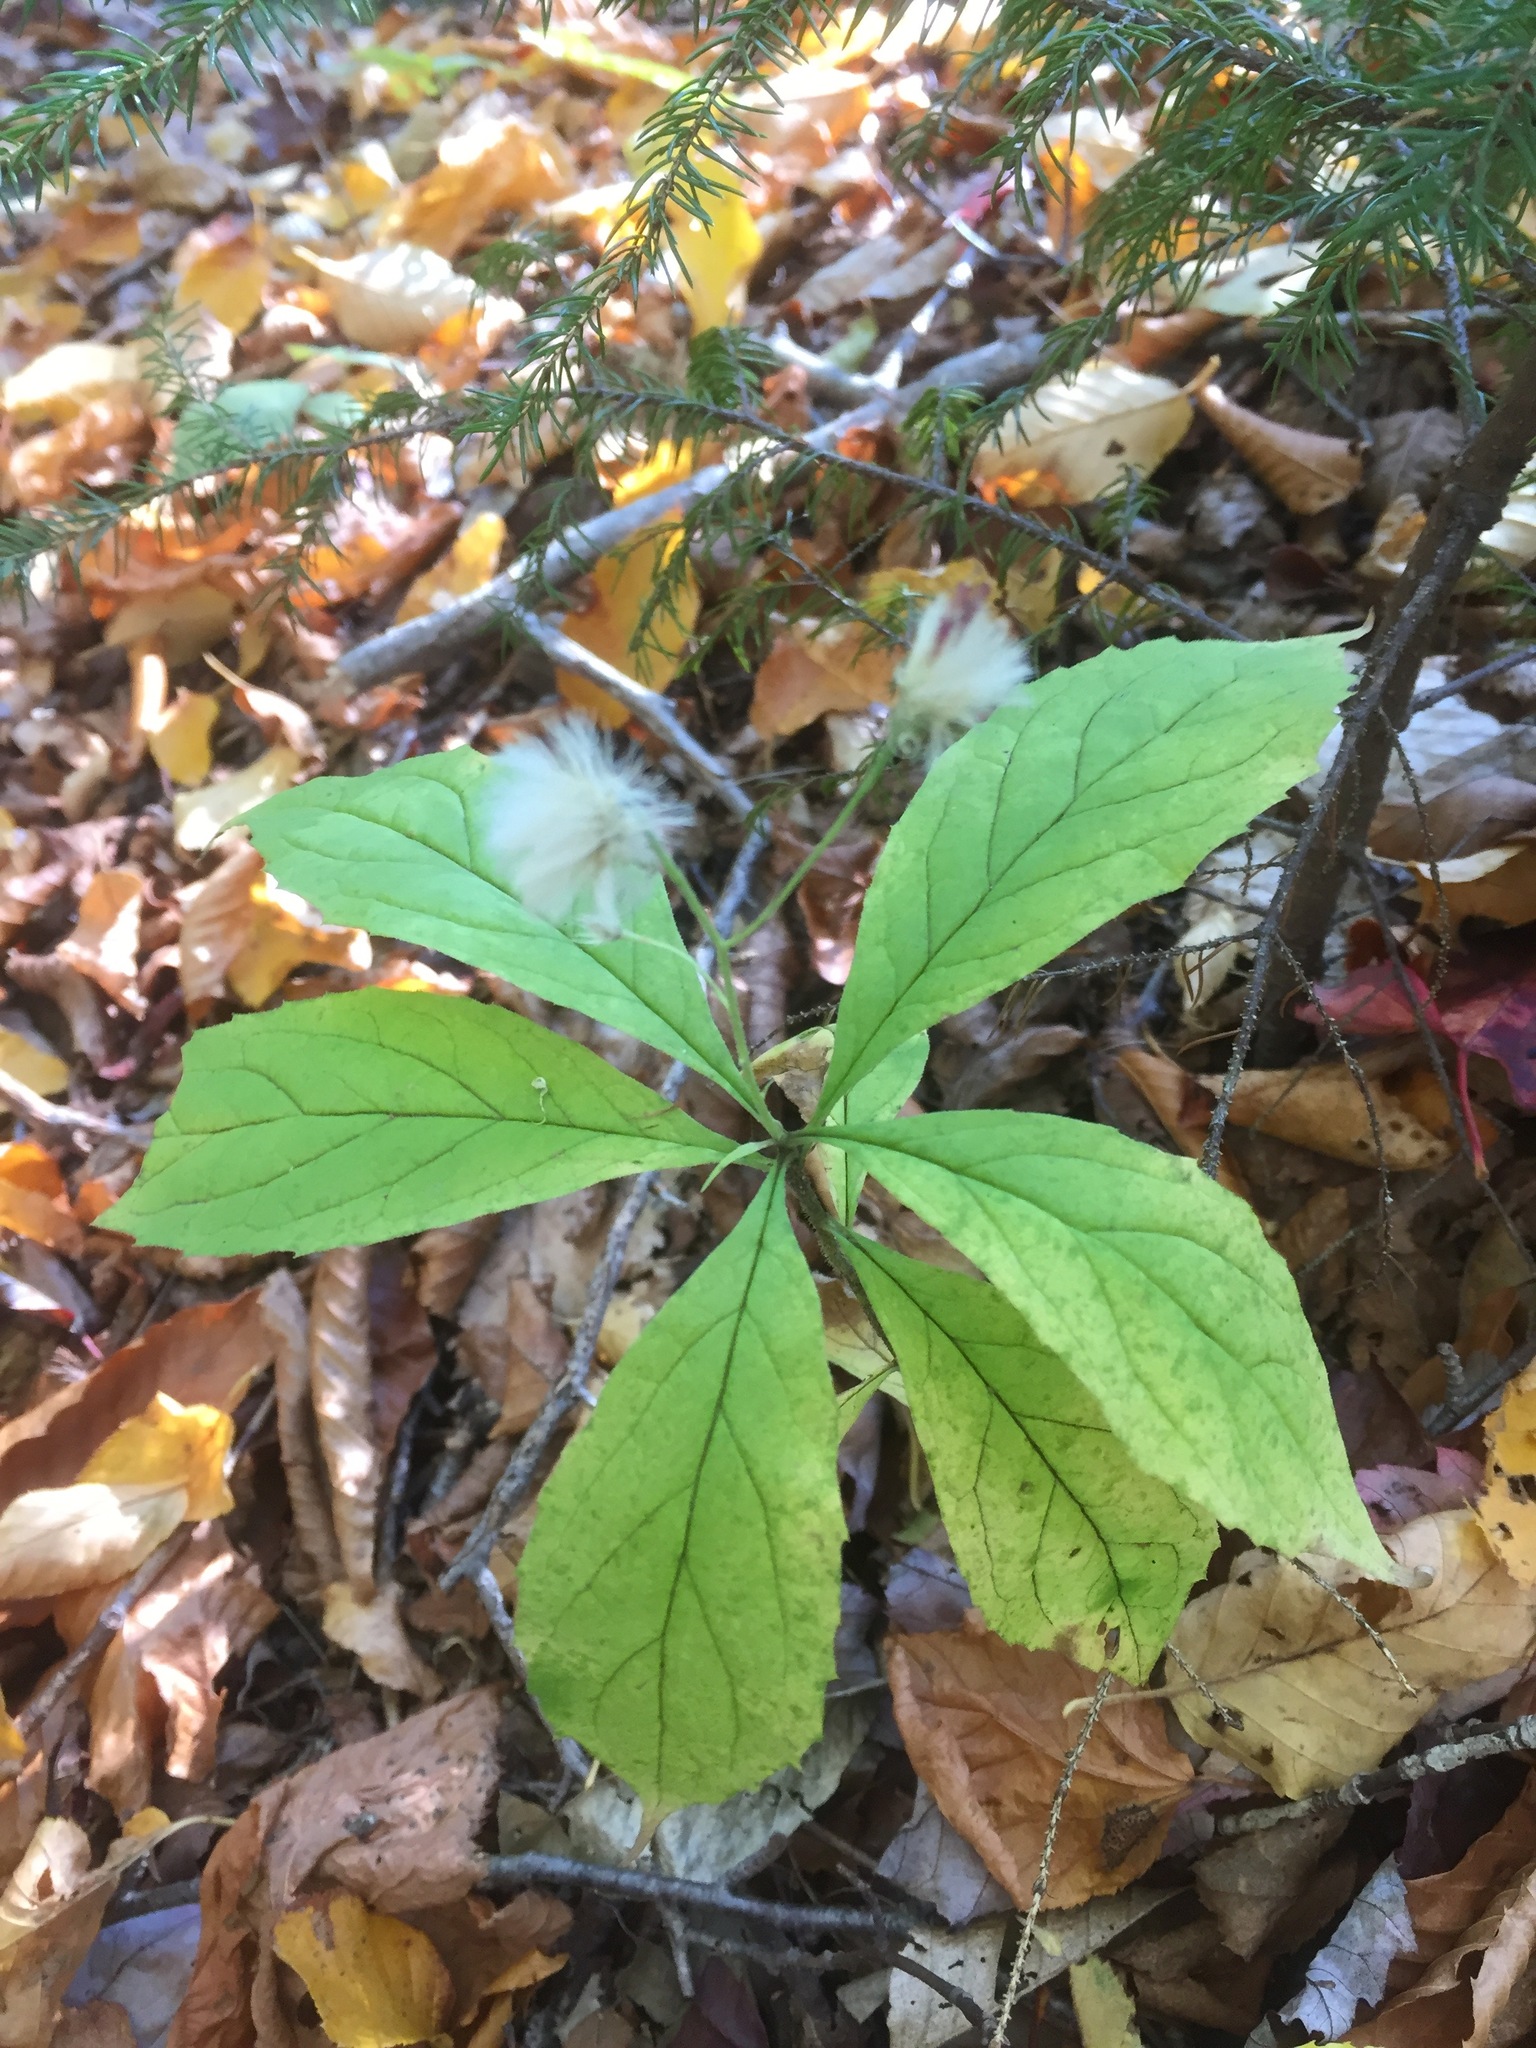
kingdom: Plantae
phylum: Tracheophyta
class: Magnoliopsida
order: Asterales
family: Asteraceae
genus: Oclemena
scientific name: Oclemena acuminata
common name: Mountain aster
